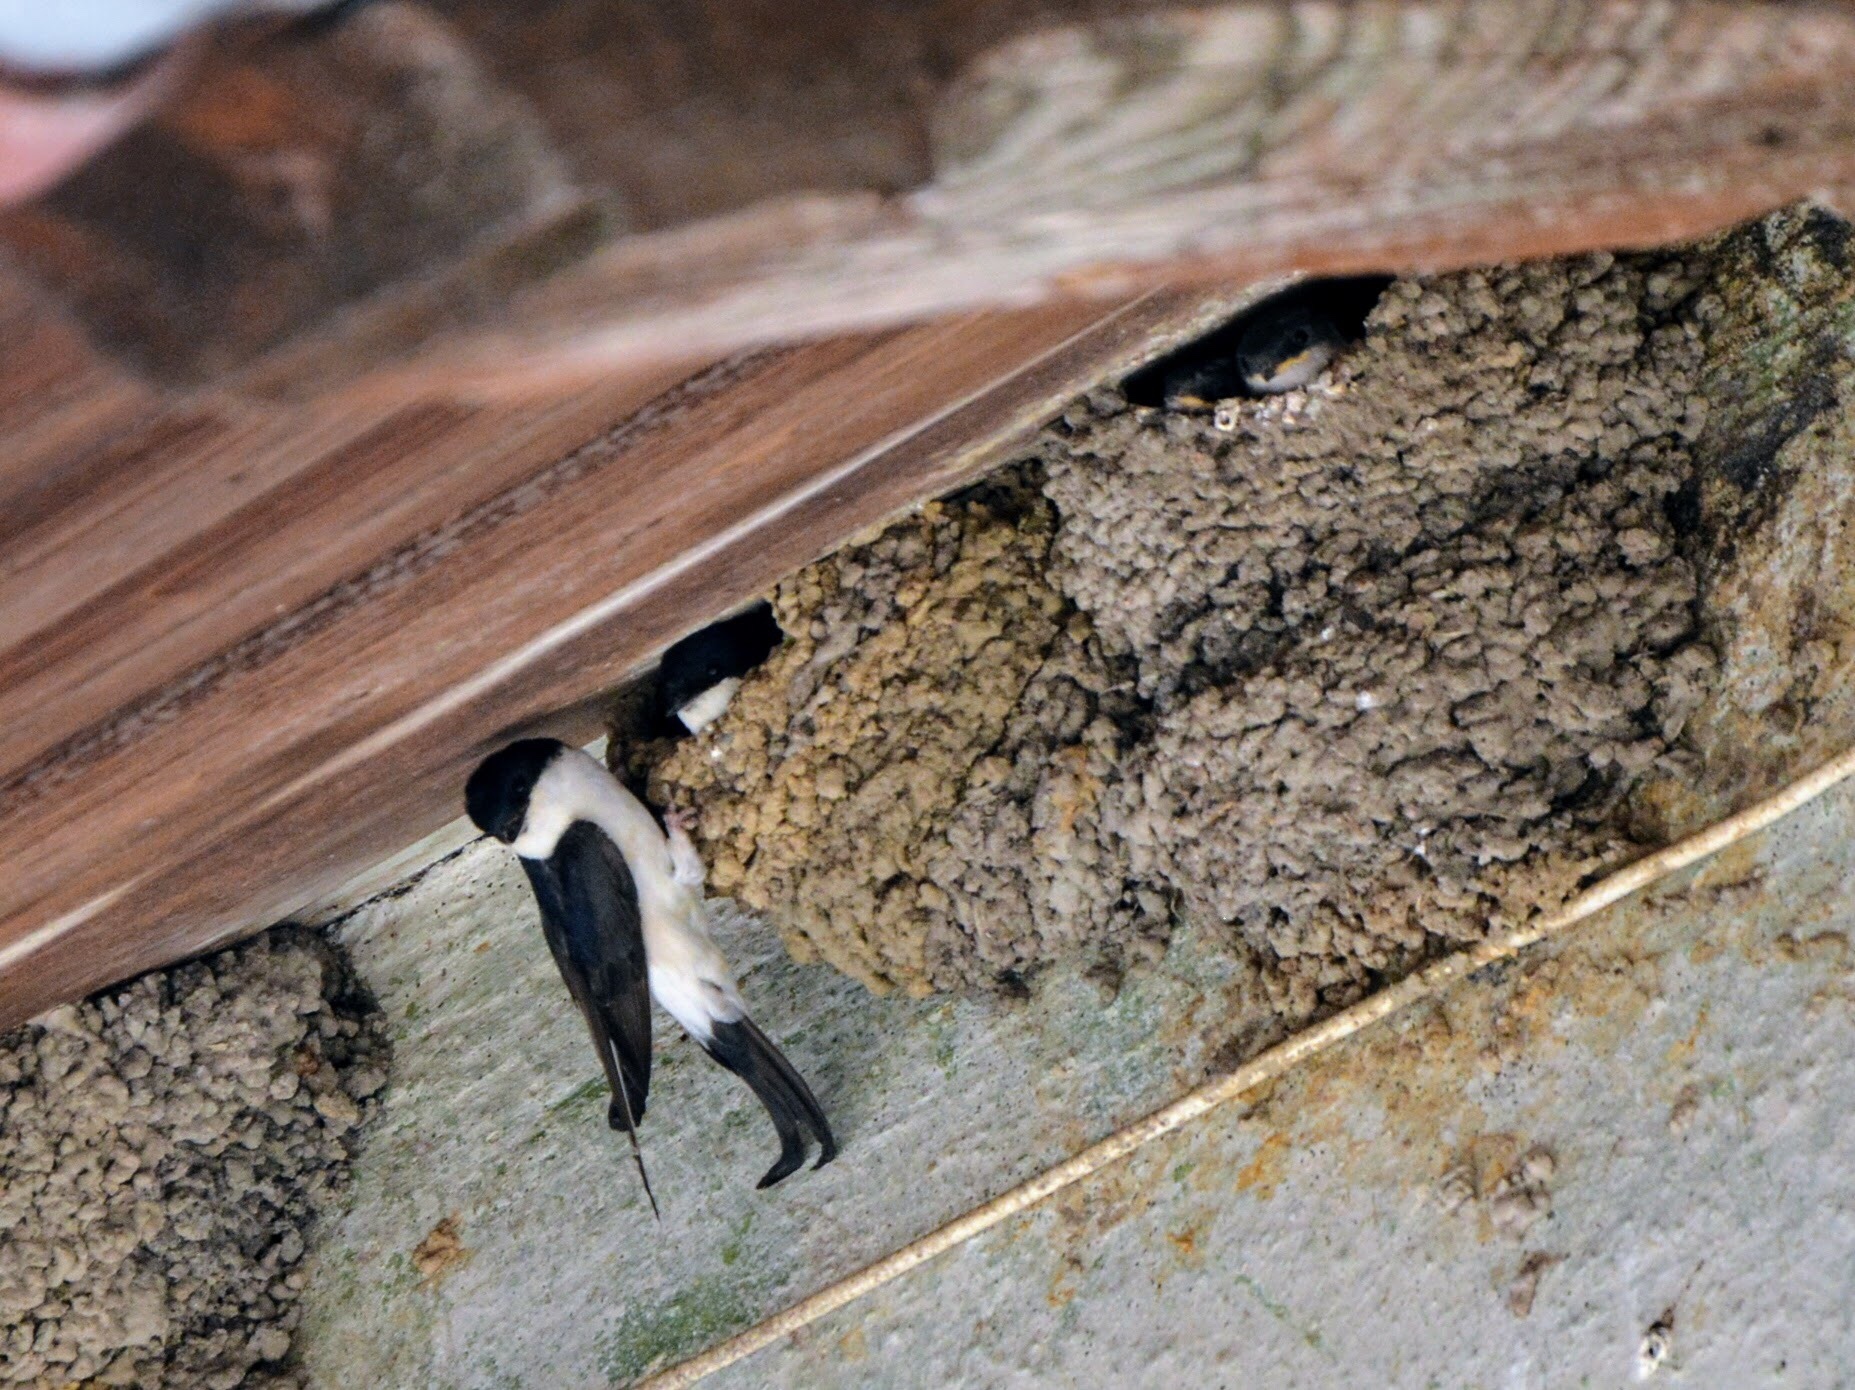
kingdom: Animalia
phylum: Chordata
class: Aves
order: Passeriformes
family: Hirundinidae
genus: Delichon
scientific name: Delichon urbicum
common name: Common house martin
